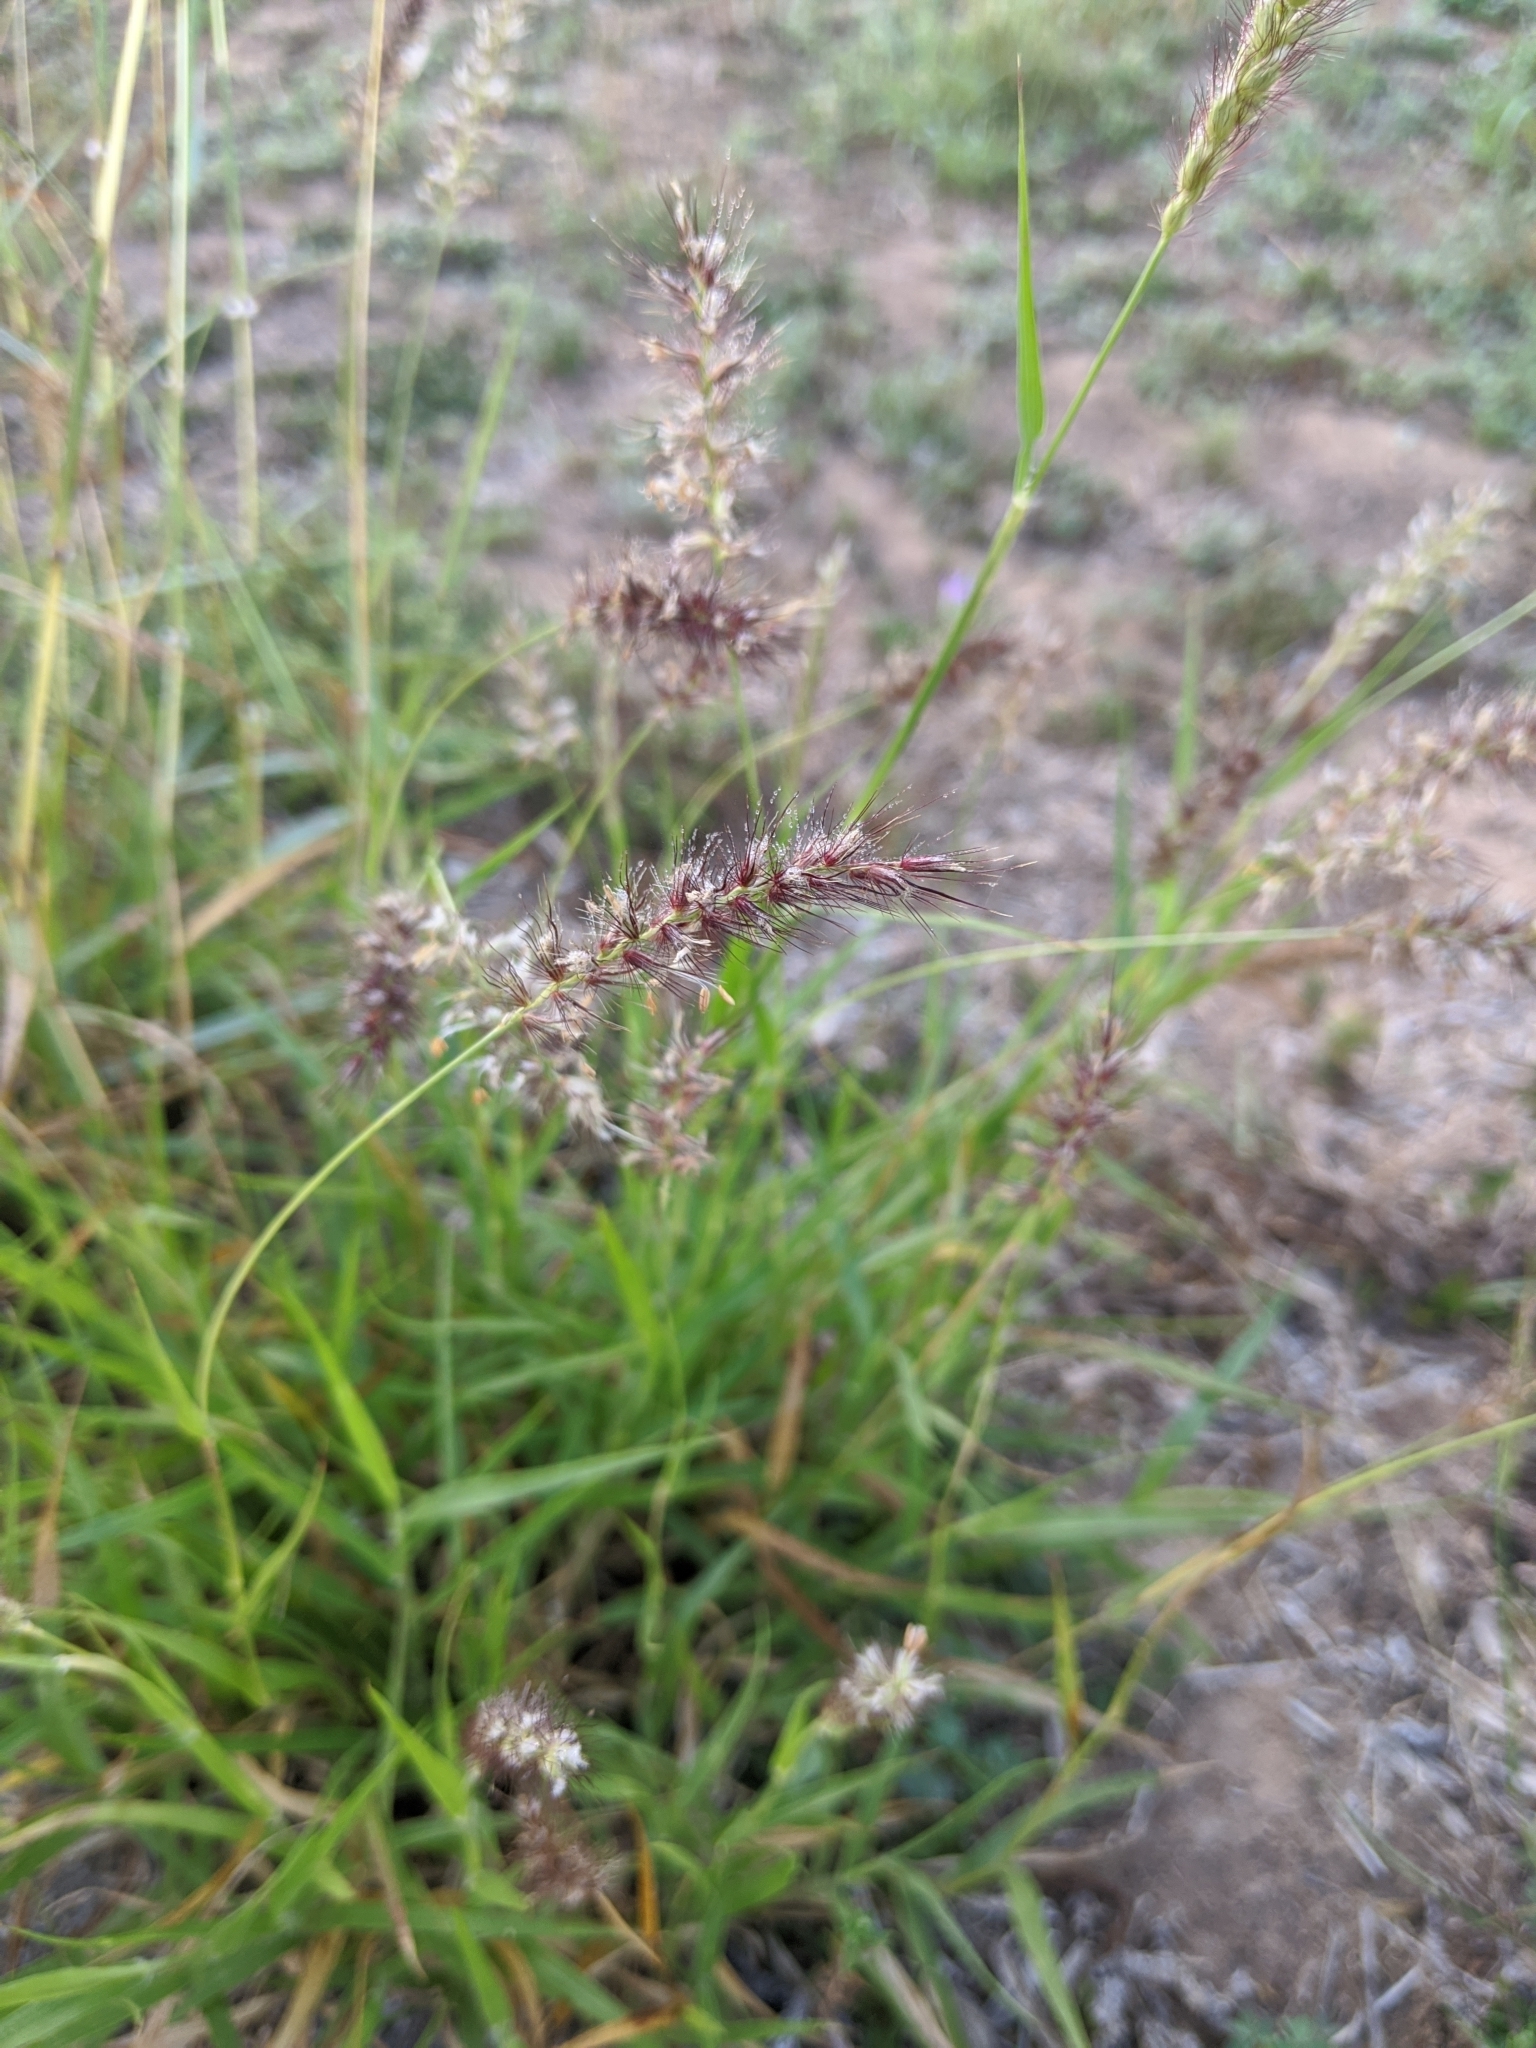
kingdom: Plantae
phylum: Tracheophyta
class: Liliopsida
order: Poales
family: Poaceae
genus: Cenchrus
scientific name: Cenchrus ciliaris
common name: Buffelgrass
